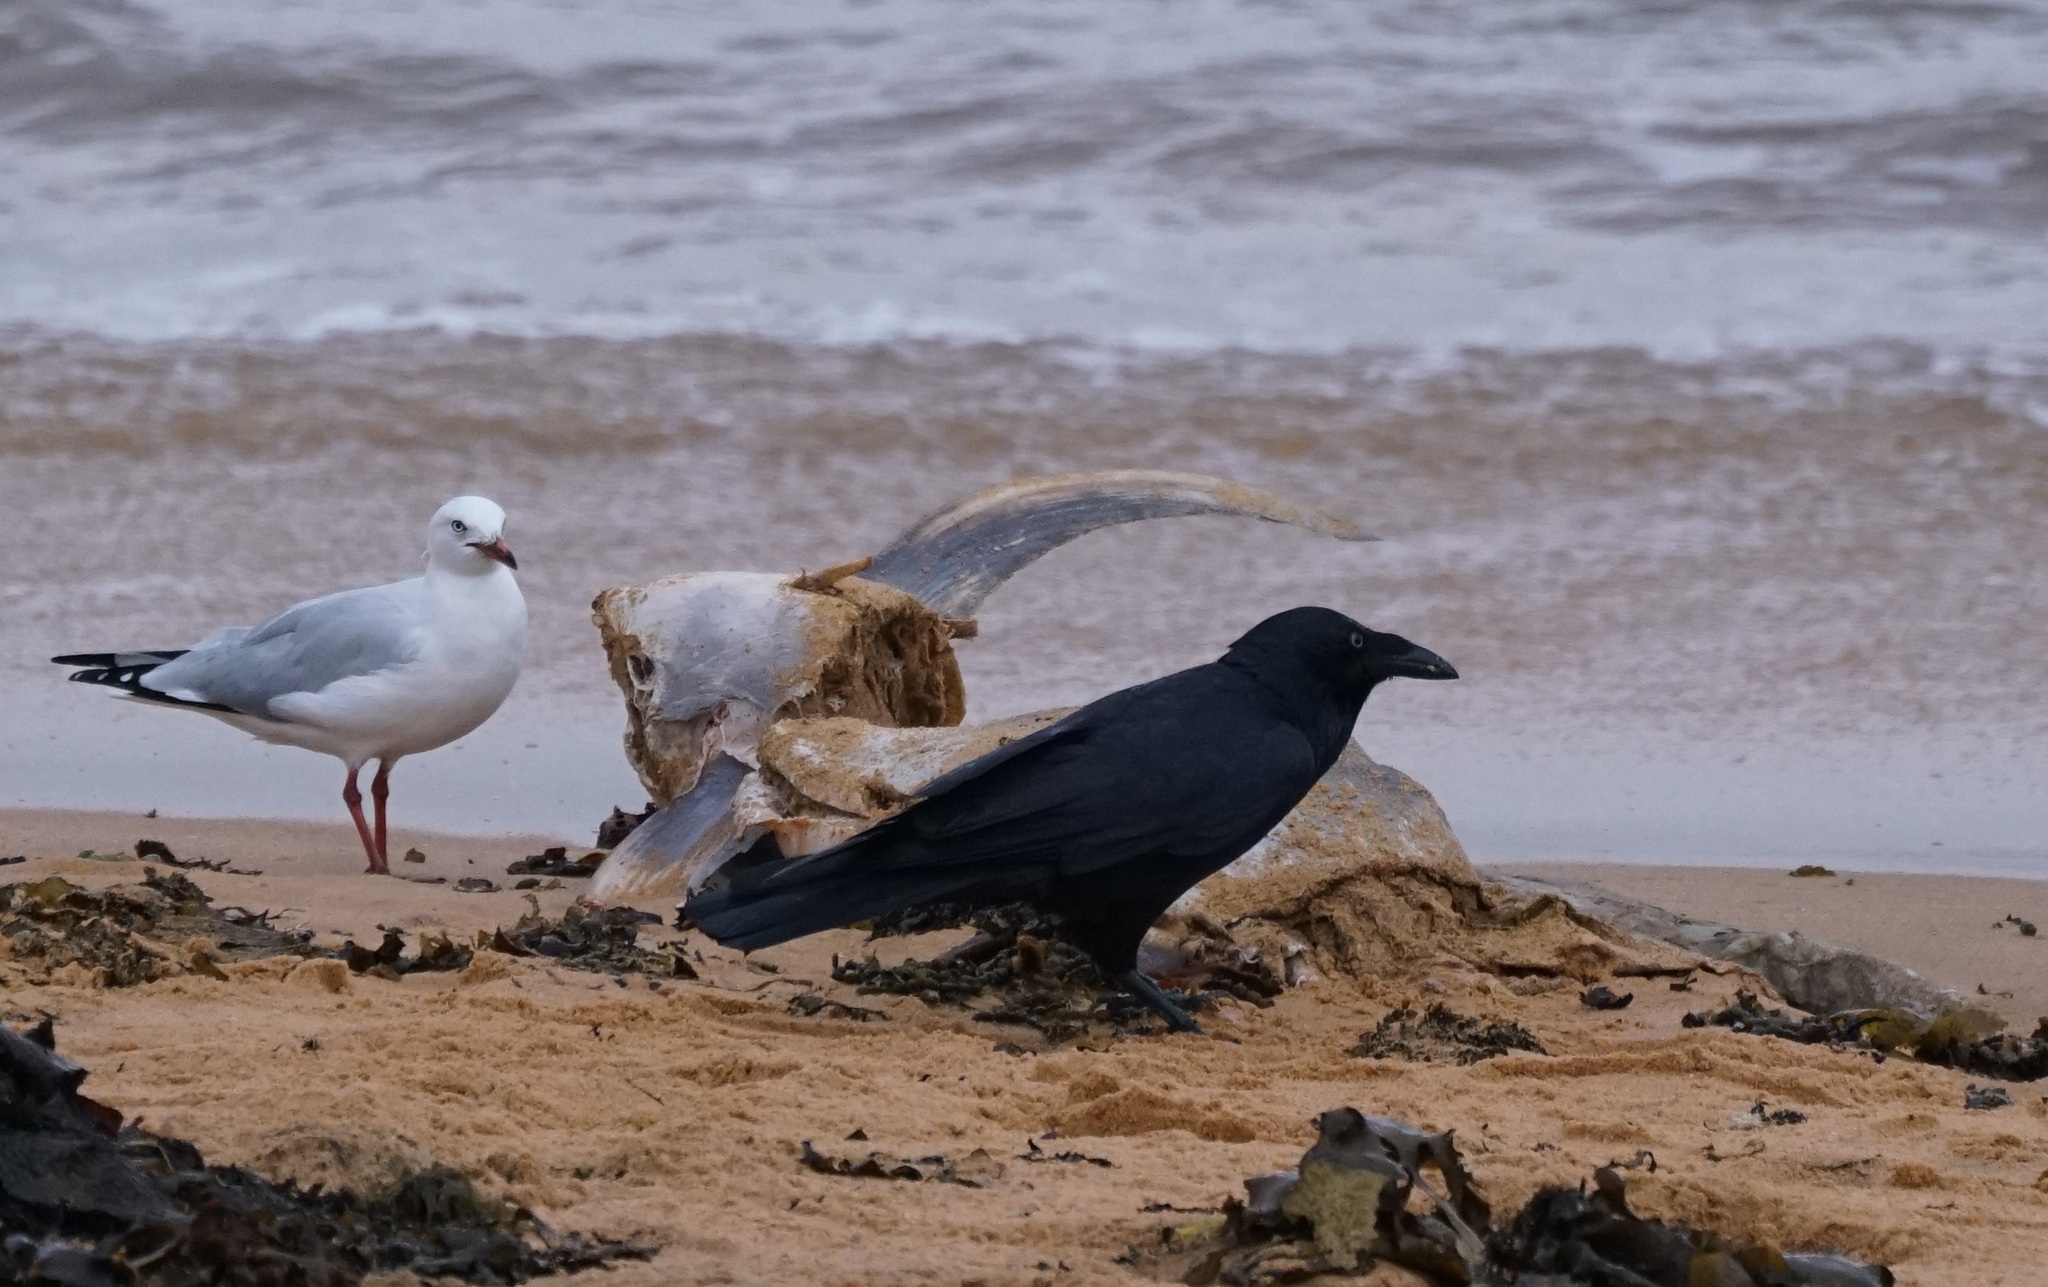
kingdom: Animalia
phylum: Chordata
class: Aves
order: Passeriformes
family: Corvidae
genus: Corvus
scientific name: Corvus coronoides
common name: Australian raven
